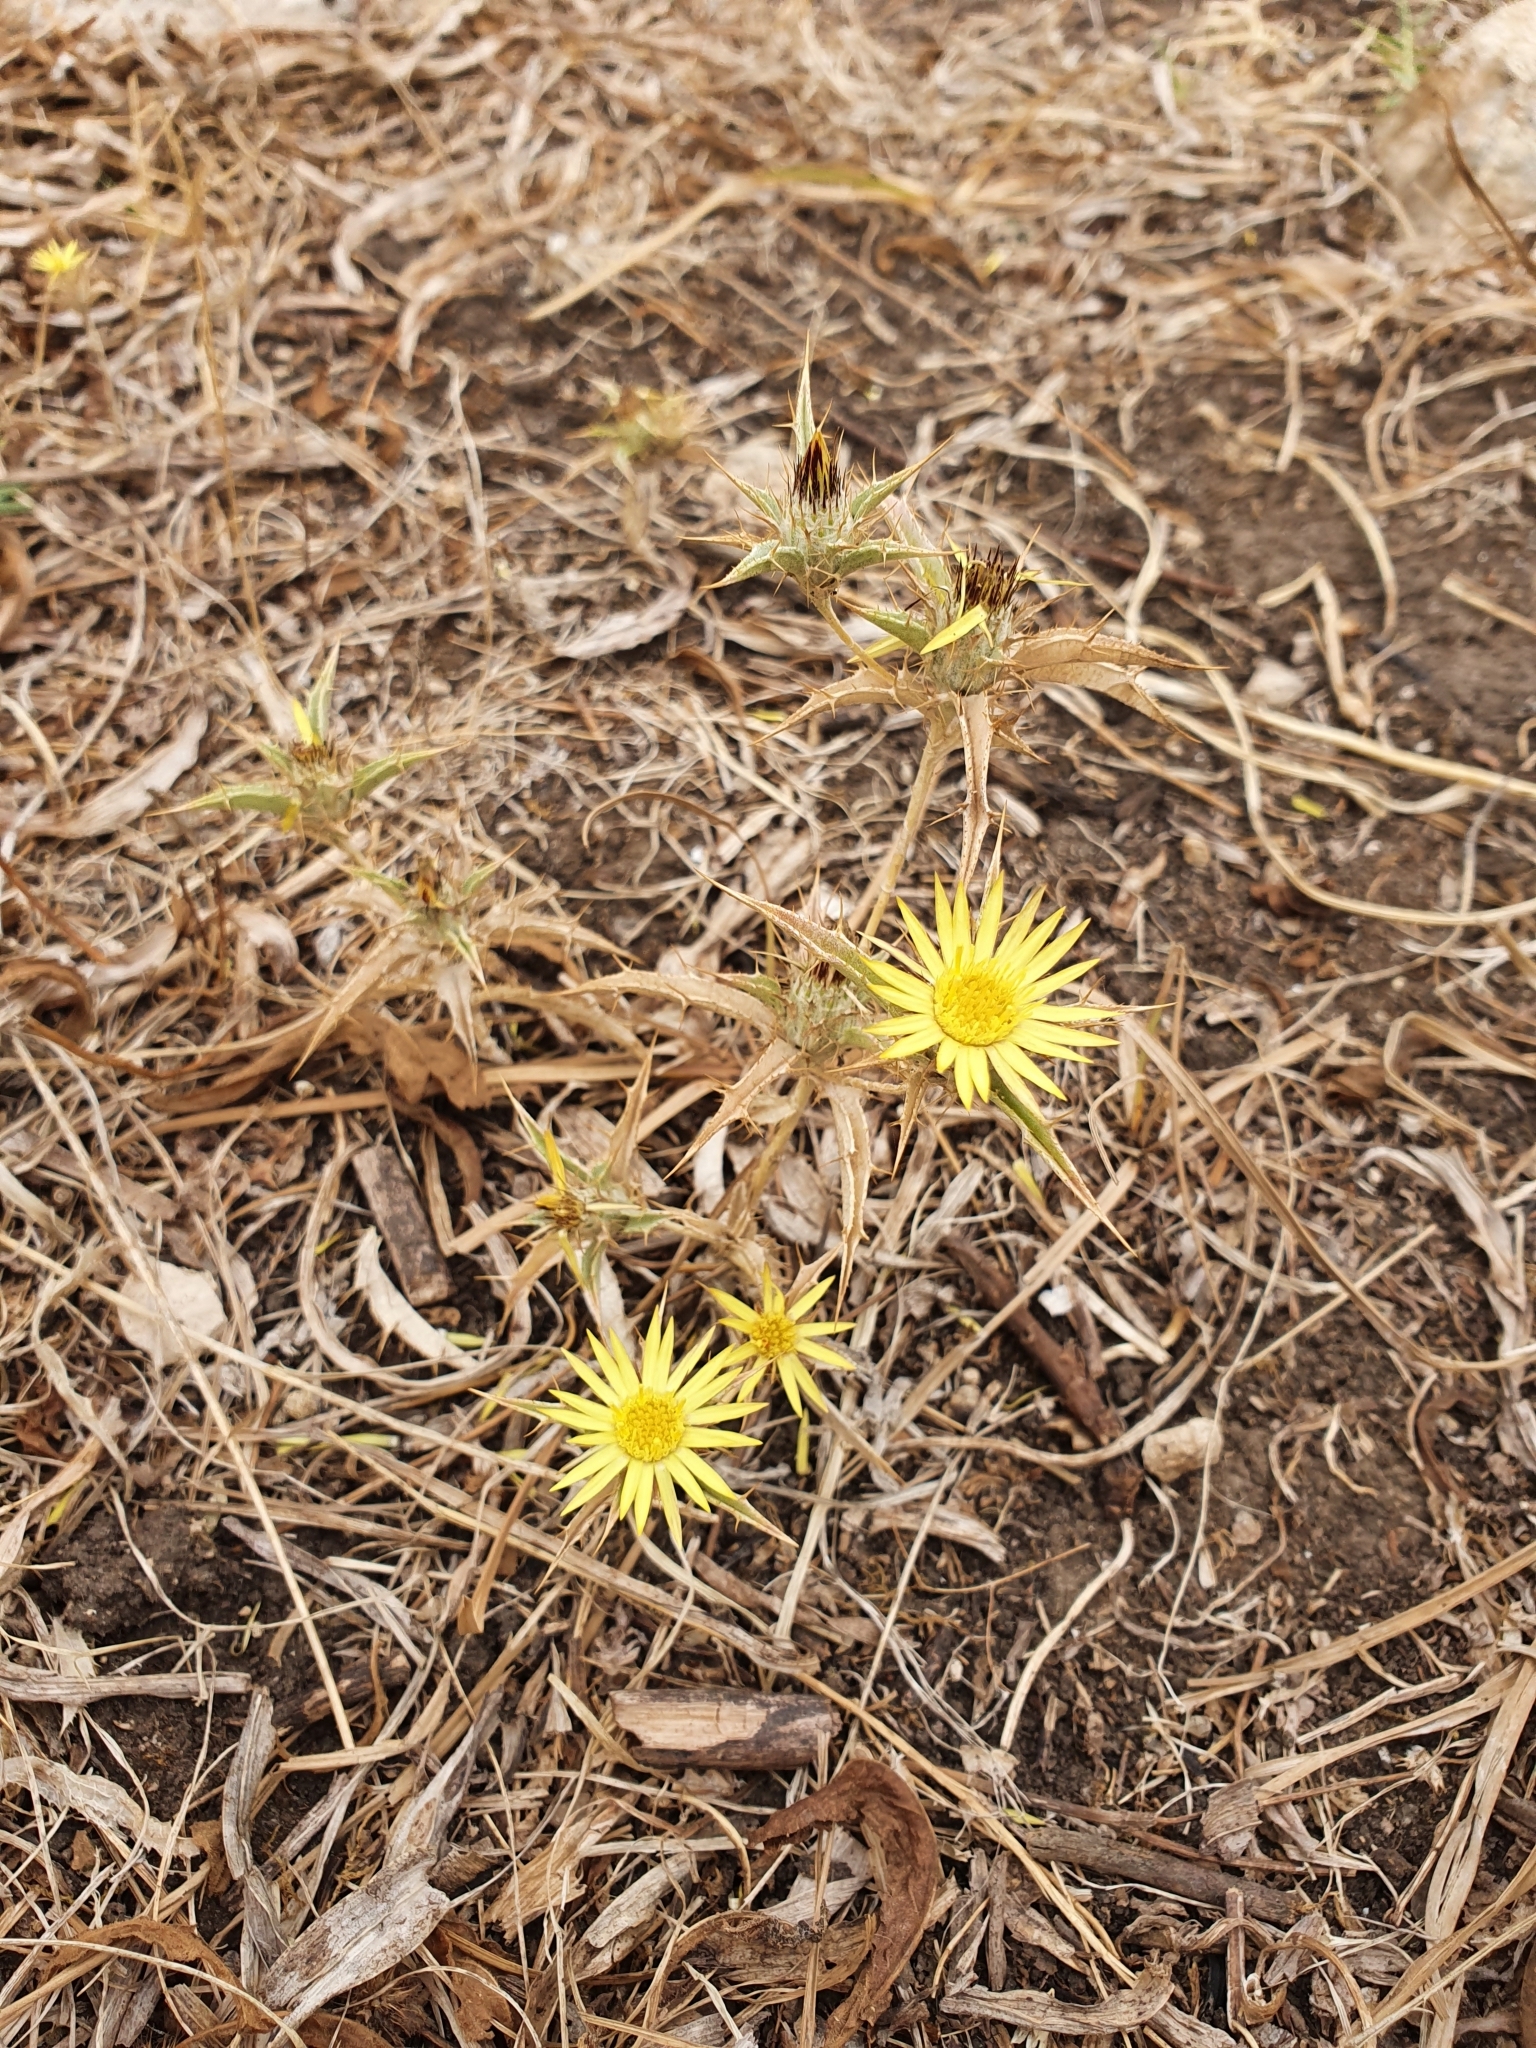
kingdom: Plantae
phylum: Tracheophyta
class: Magnoliopsida
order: Asterales
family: Asteraceae
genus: Carlina
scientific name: Carlina racemosa
